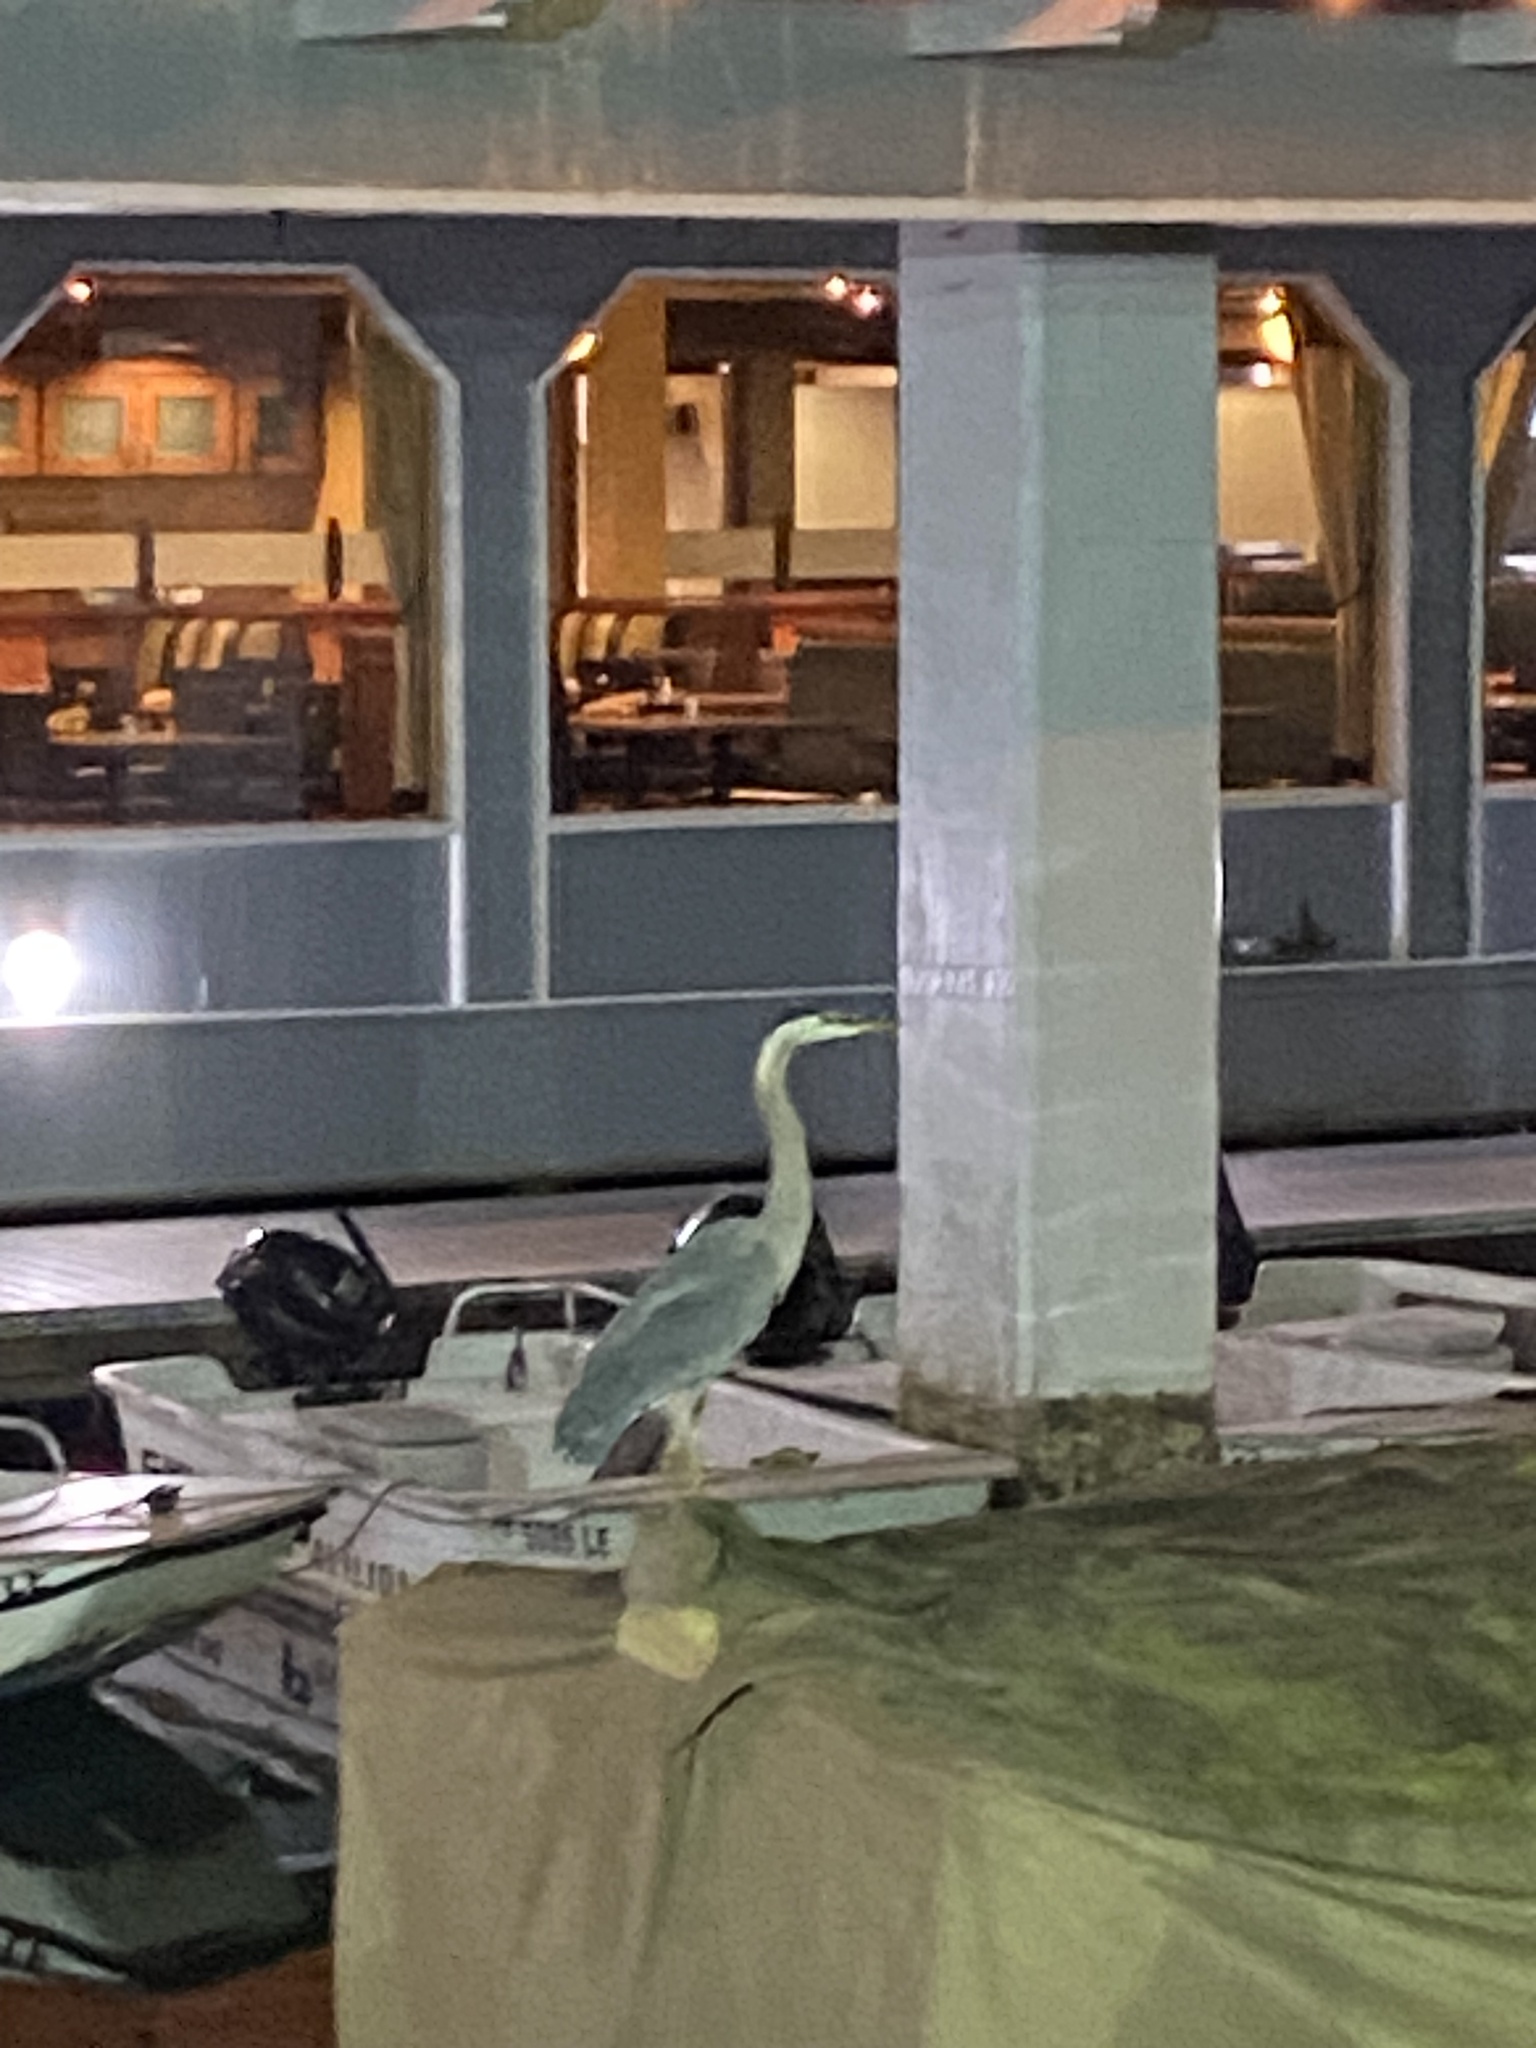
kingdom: Animalia
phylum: Chordata
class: Aves
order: Pelecaniformes
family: Ardeidae
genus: Ardea
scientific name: Ardea herodias
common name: Great blue heron
